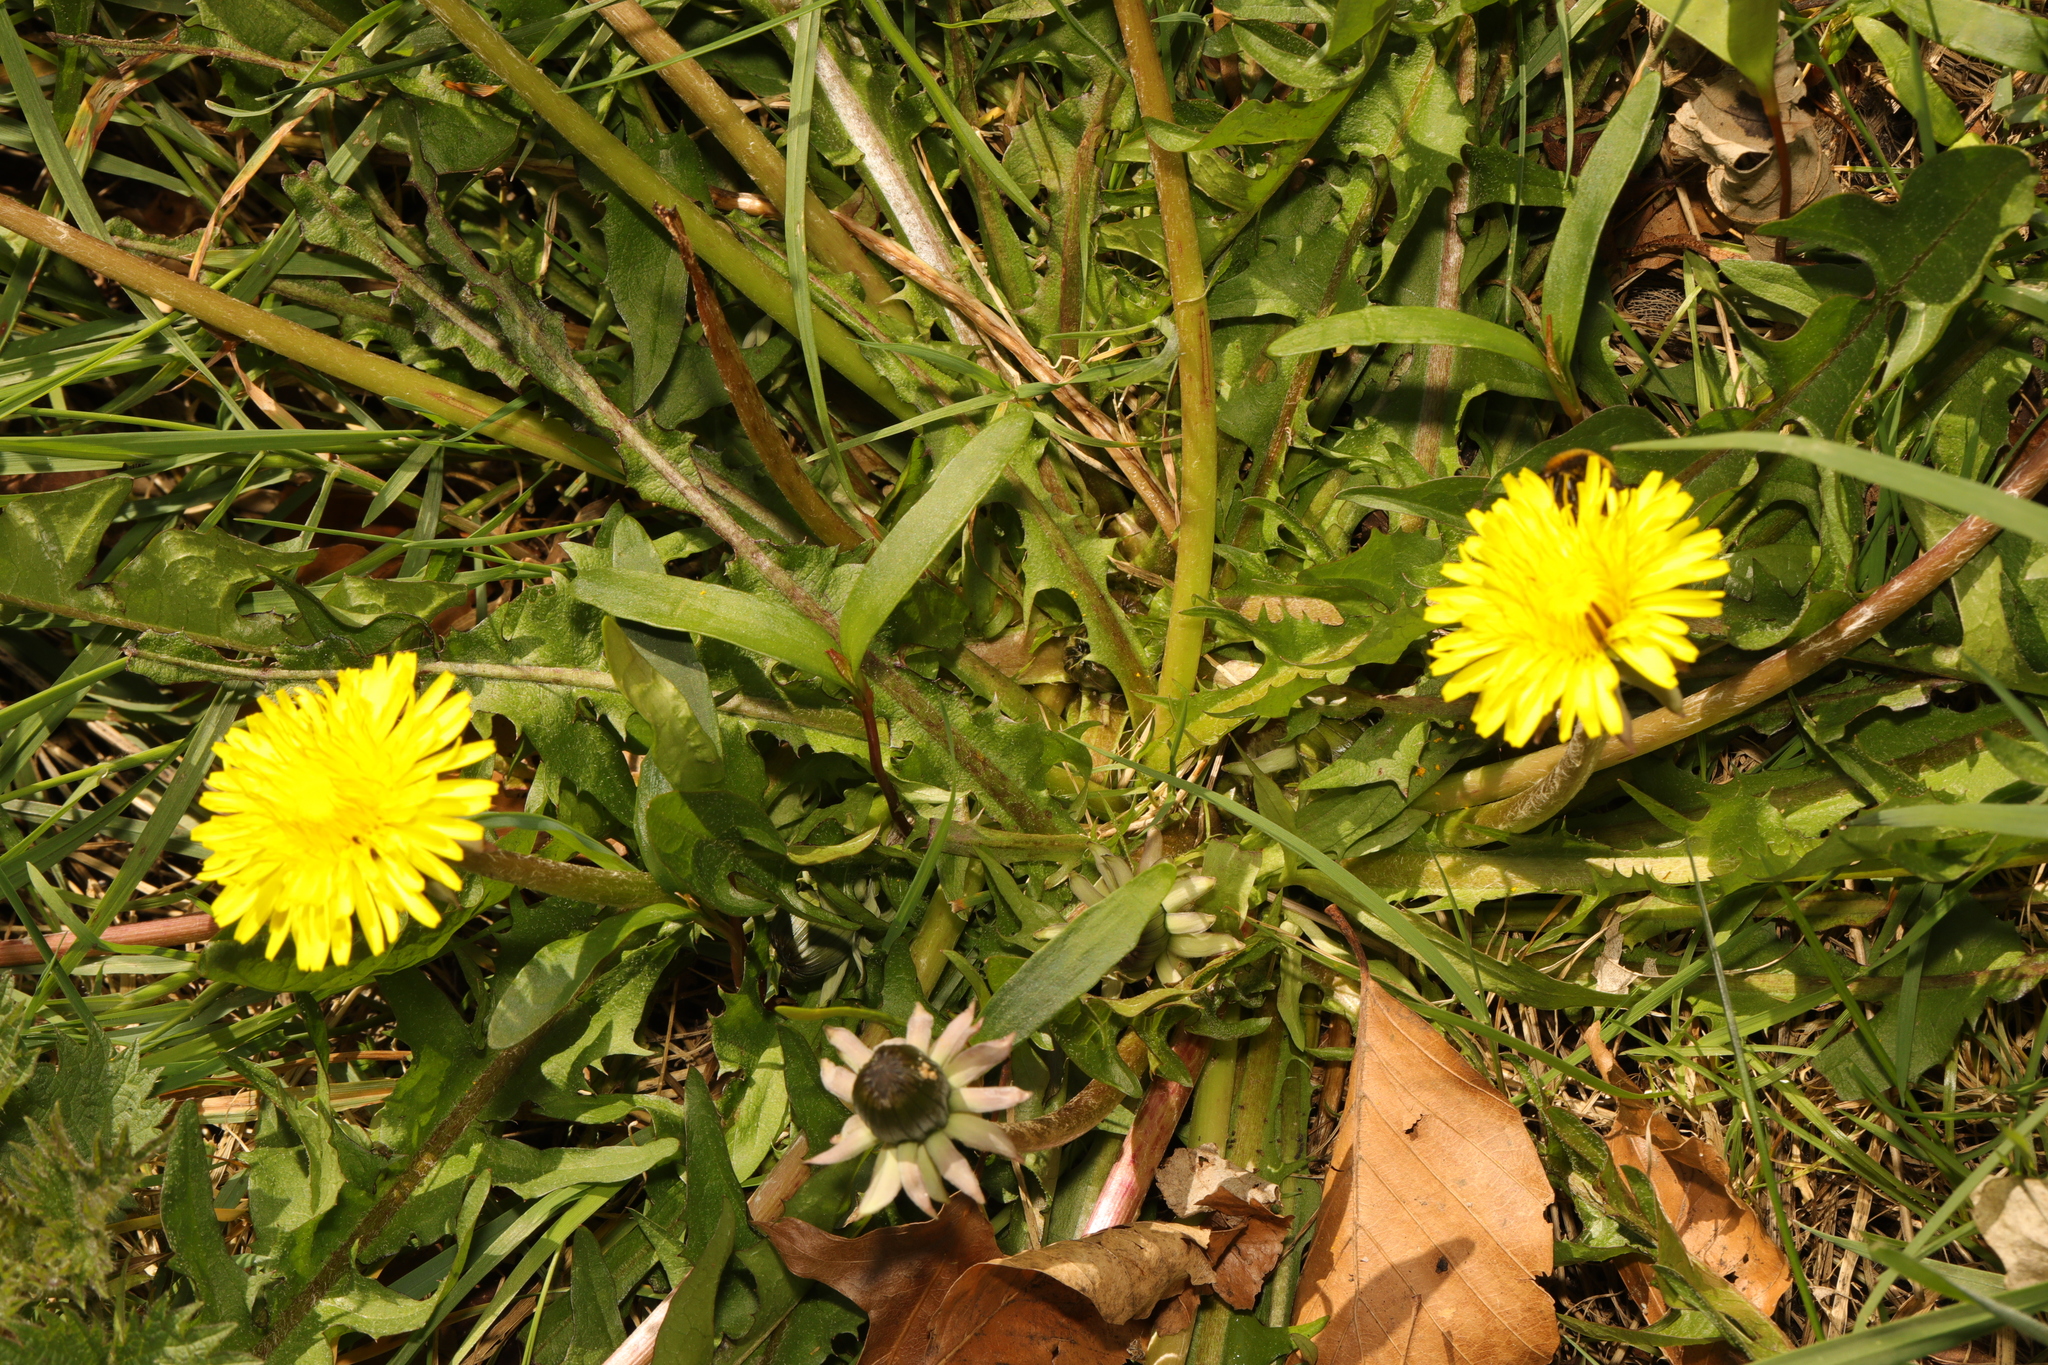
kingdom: Plantae
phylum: Tracheophyta
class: Magnoliopsida
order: Asterales
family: Asteraceae
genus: Taraxacum
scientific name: Taraxacum officinale
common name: Common dandelion
